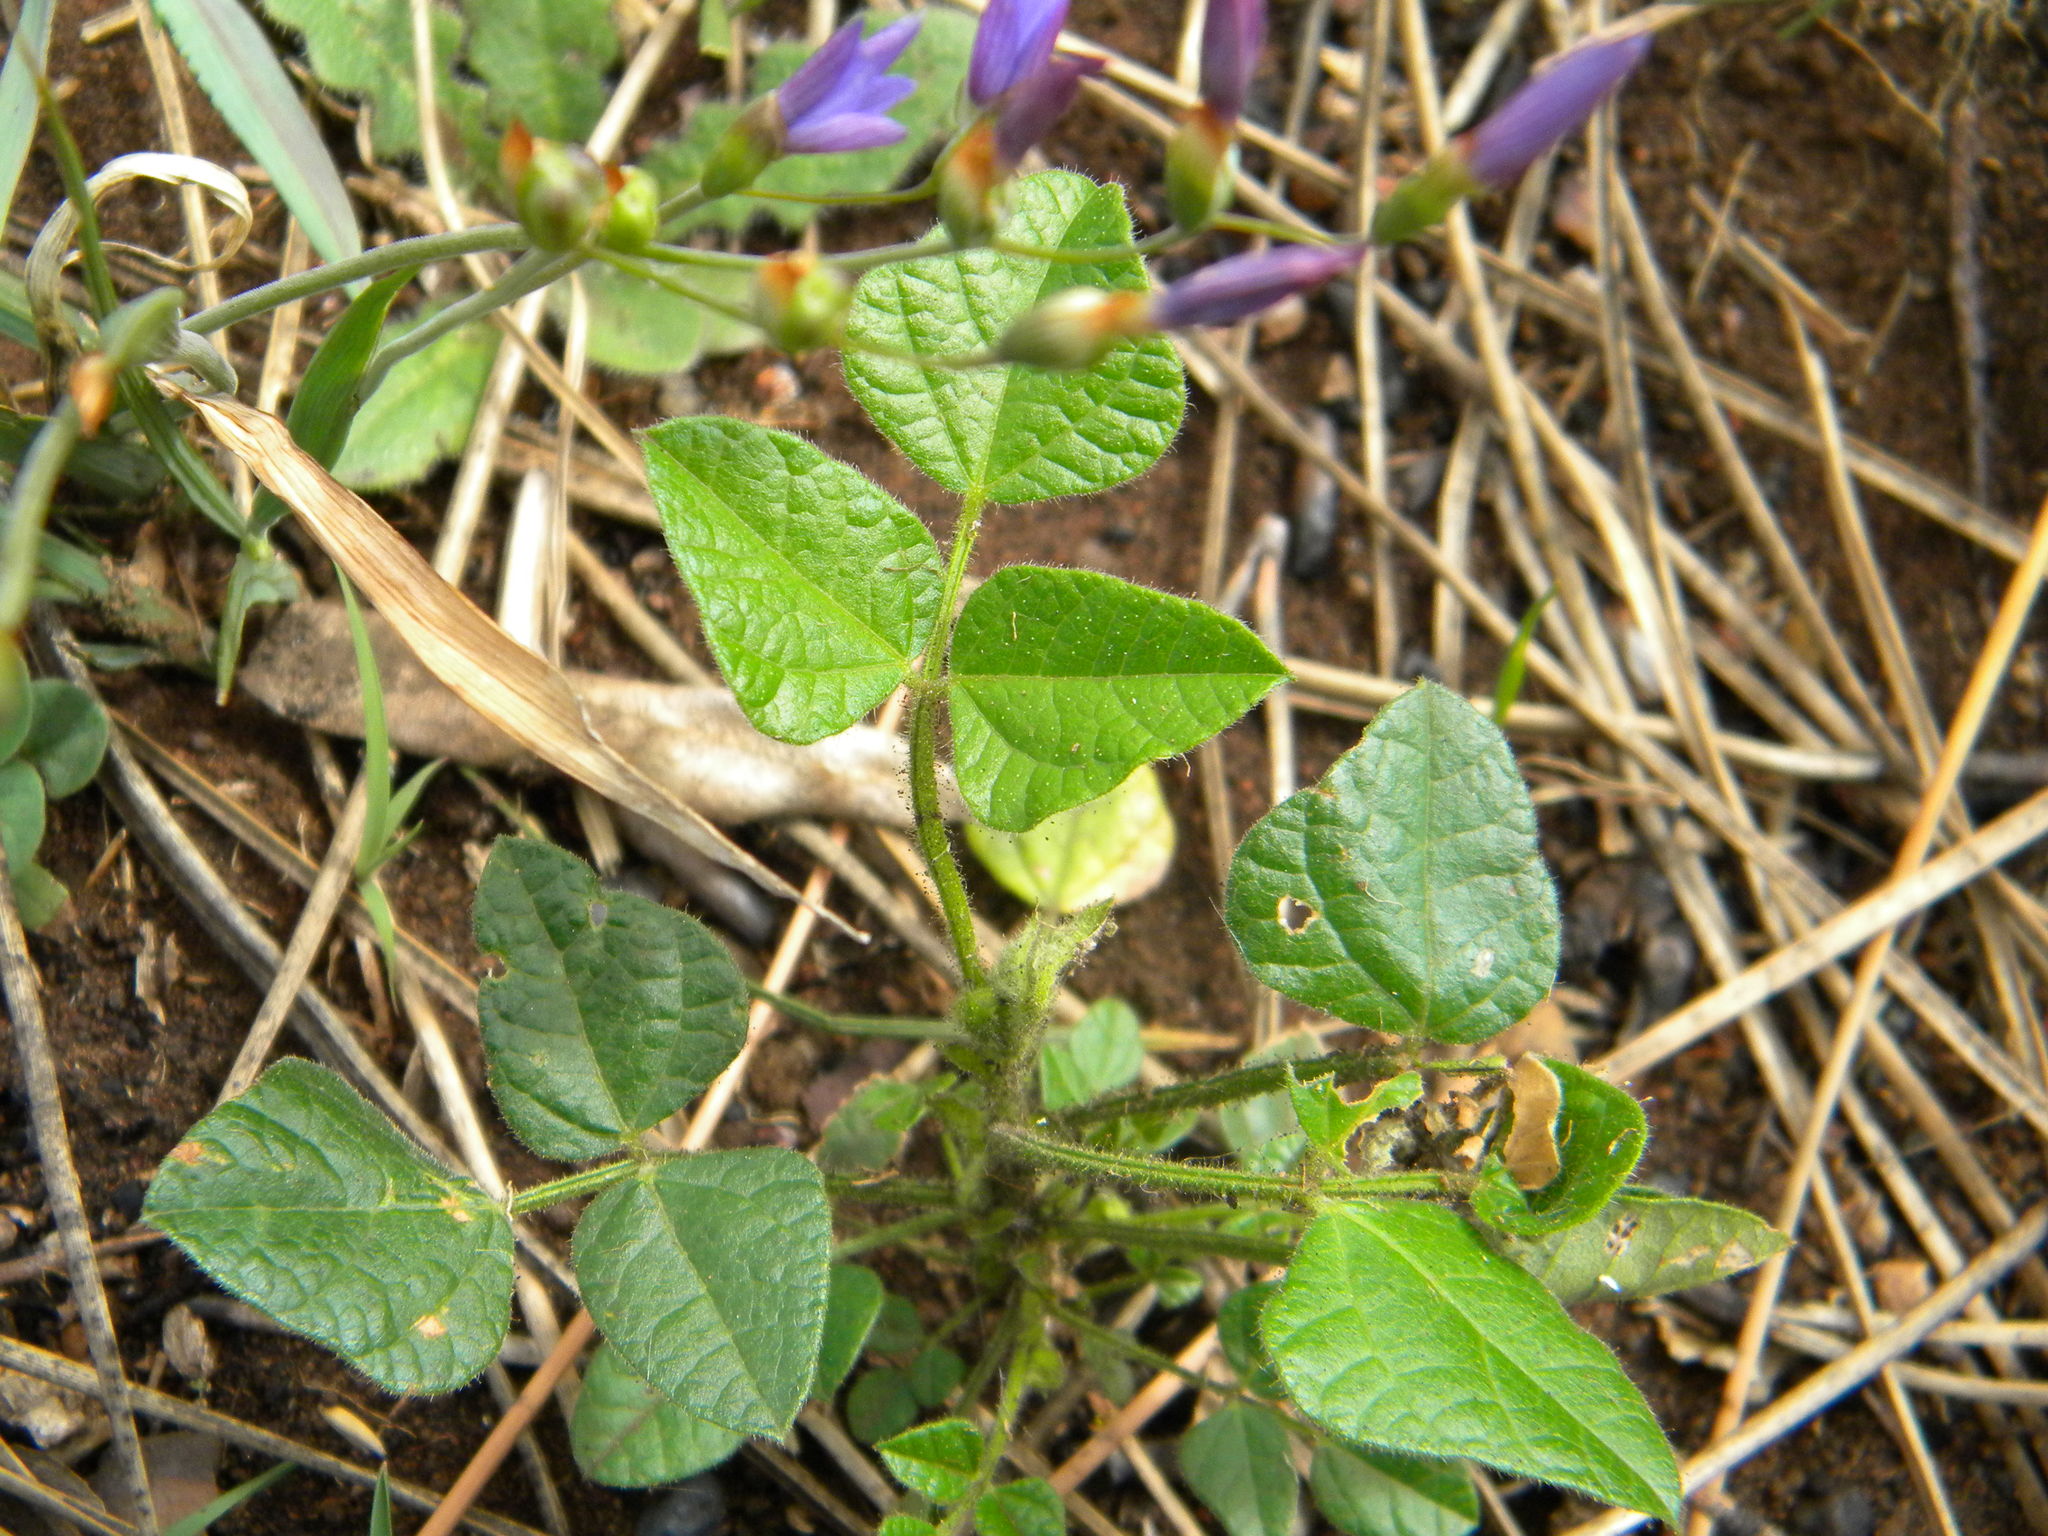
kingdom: Plantae
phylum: Tracheophyta
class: Magnoliopsida
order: Fabales
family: Fabaceae
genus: Bolusafra
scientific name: Bolusafra bituminosa
